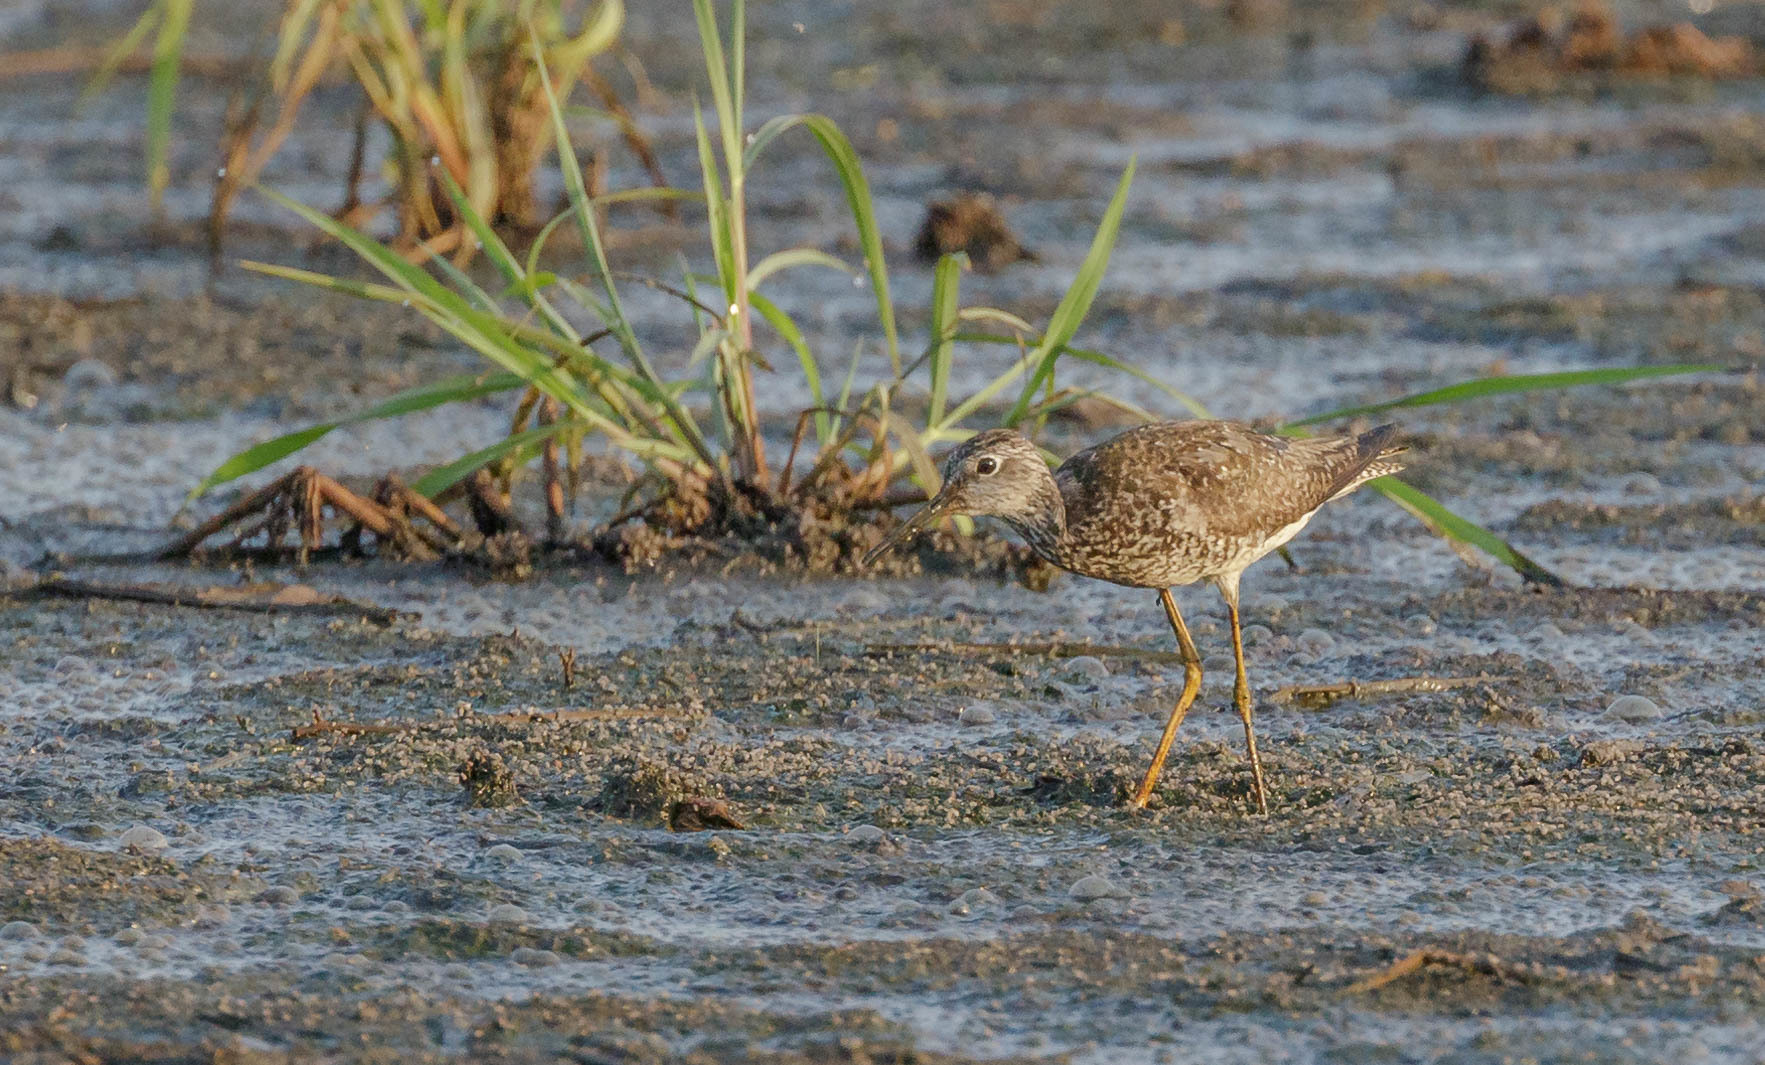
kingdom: Animalia
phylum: Chordata
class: Aves
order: Charadriiformes
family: Scolopacidae
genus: Tringa
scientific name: Tringa flavipes
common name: Lesser yellowlegs
